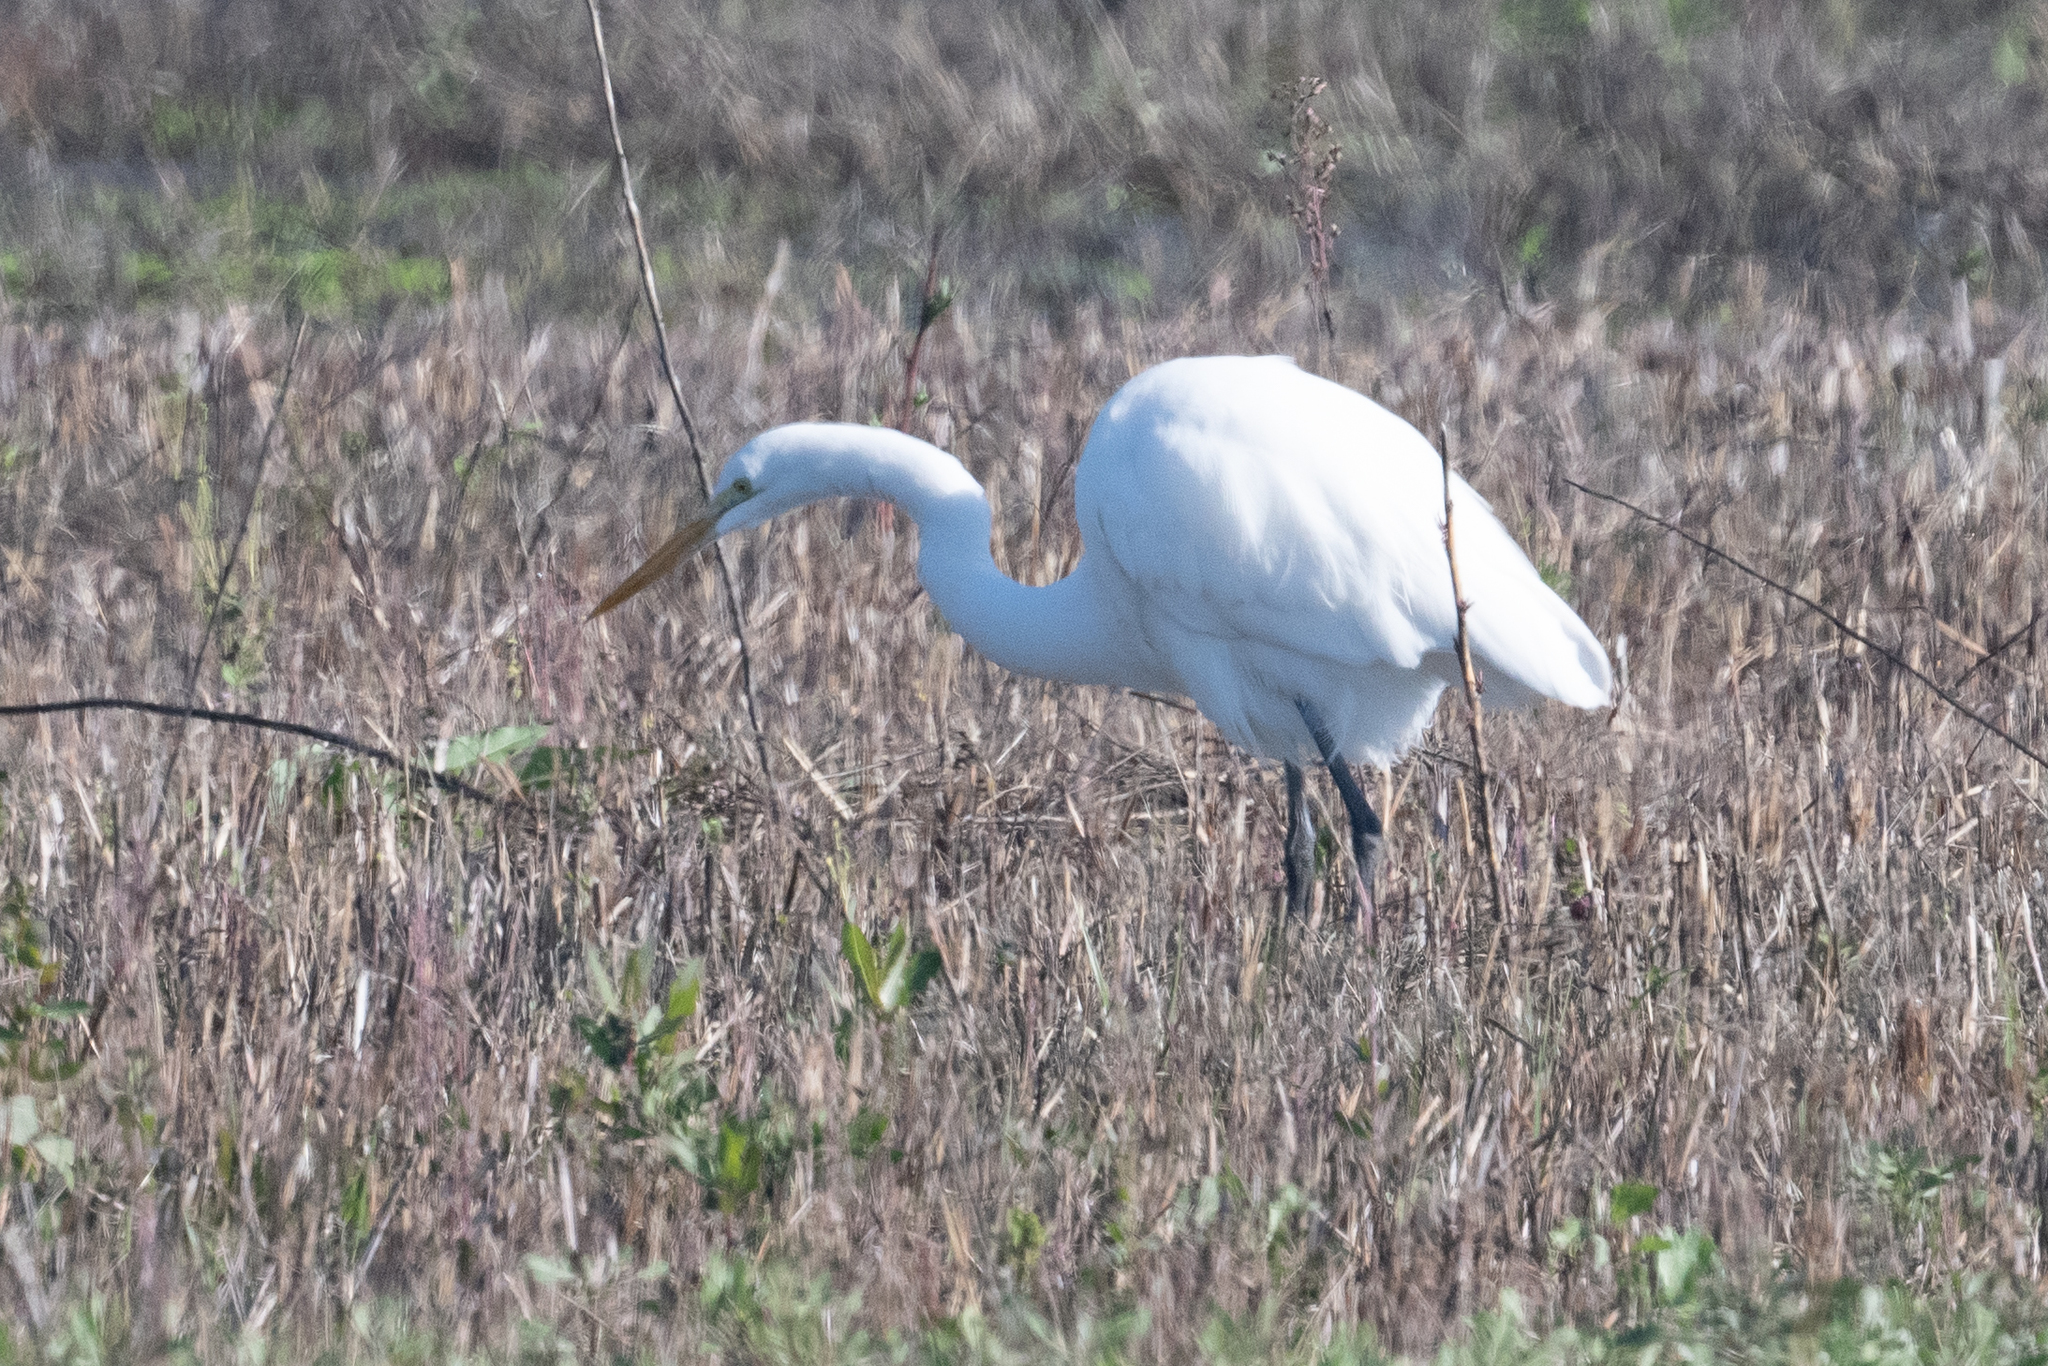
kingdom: Animalia
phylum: Chordata
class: Aves
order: Pelecaniformes
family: Ardeidae
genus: Ardea
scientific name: Ardea alba
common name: Great egret
